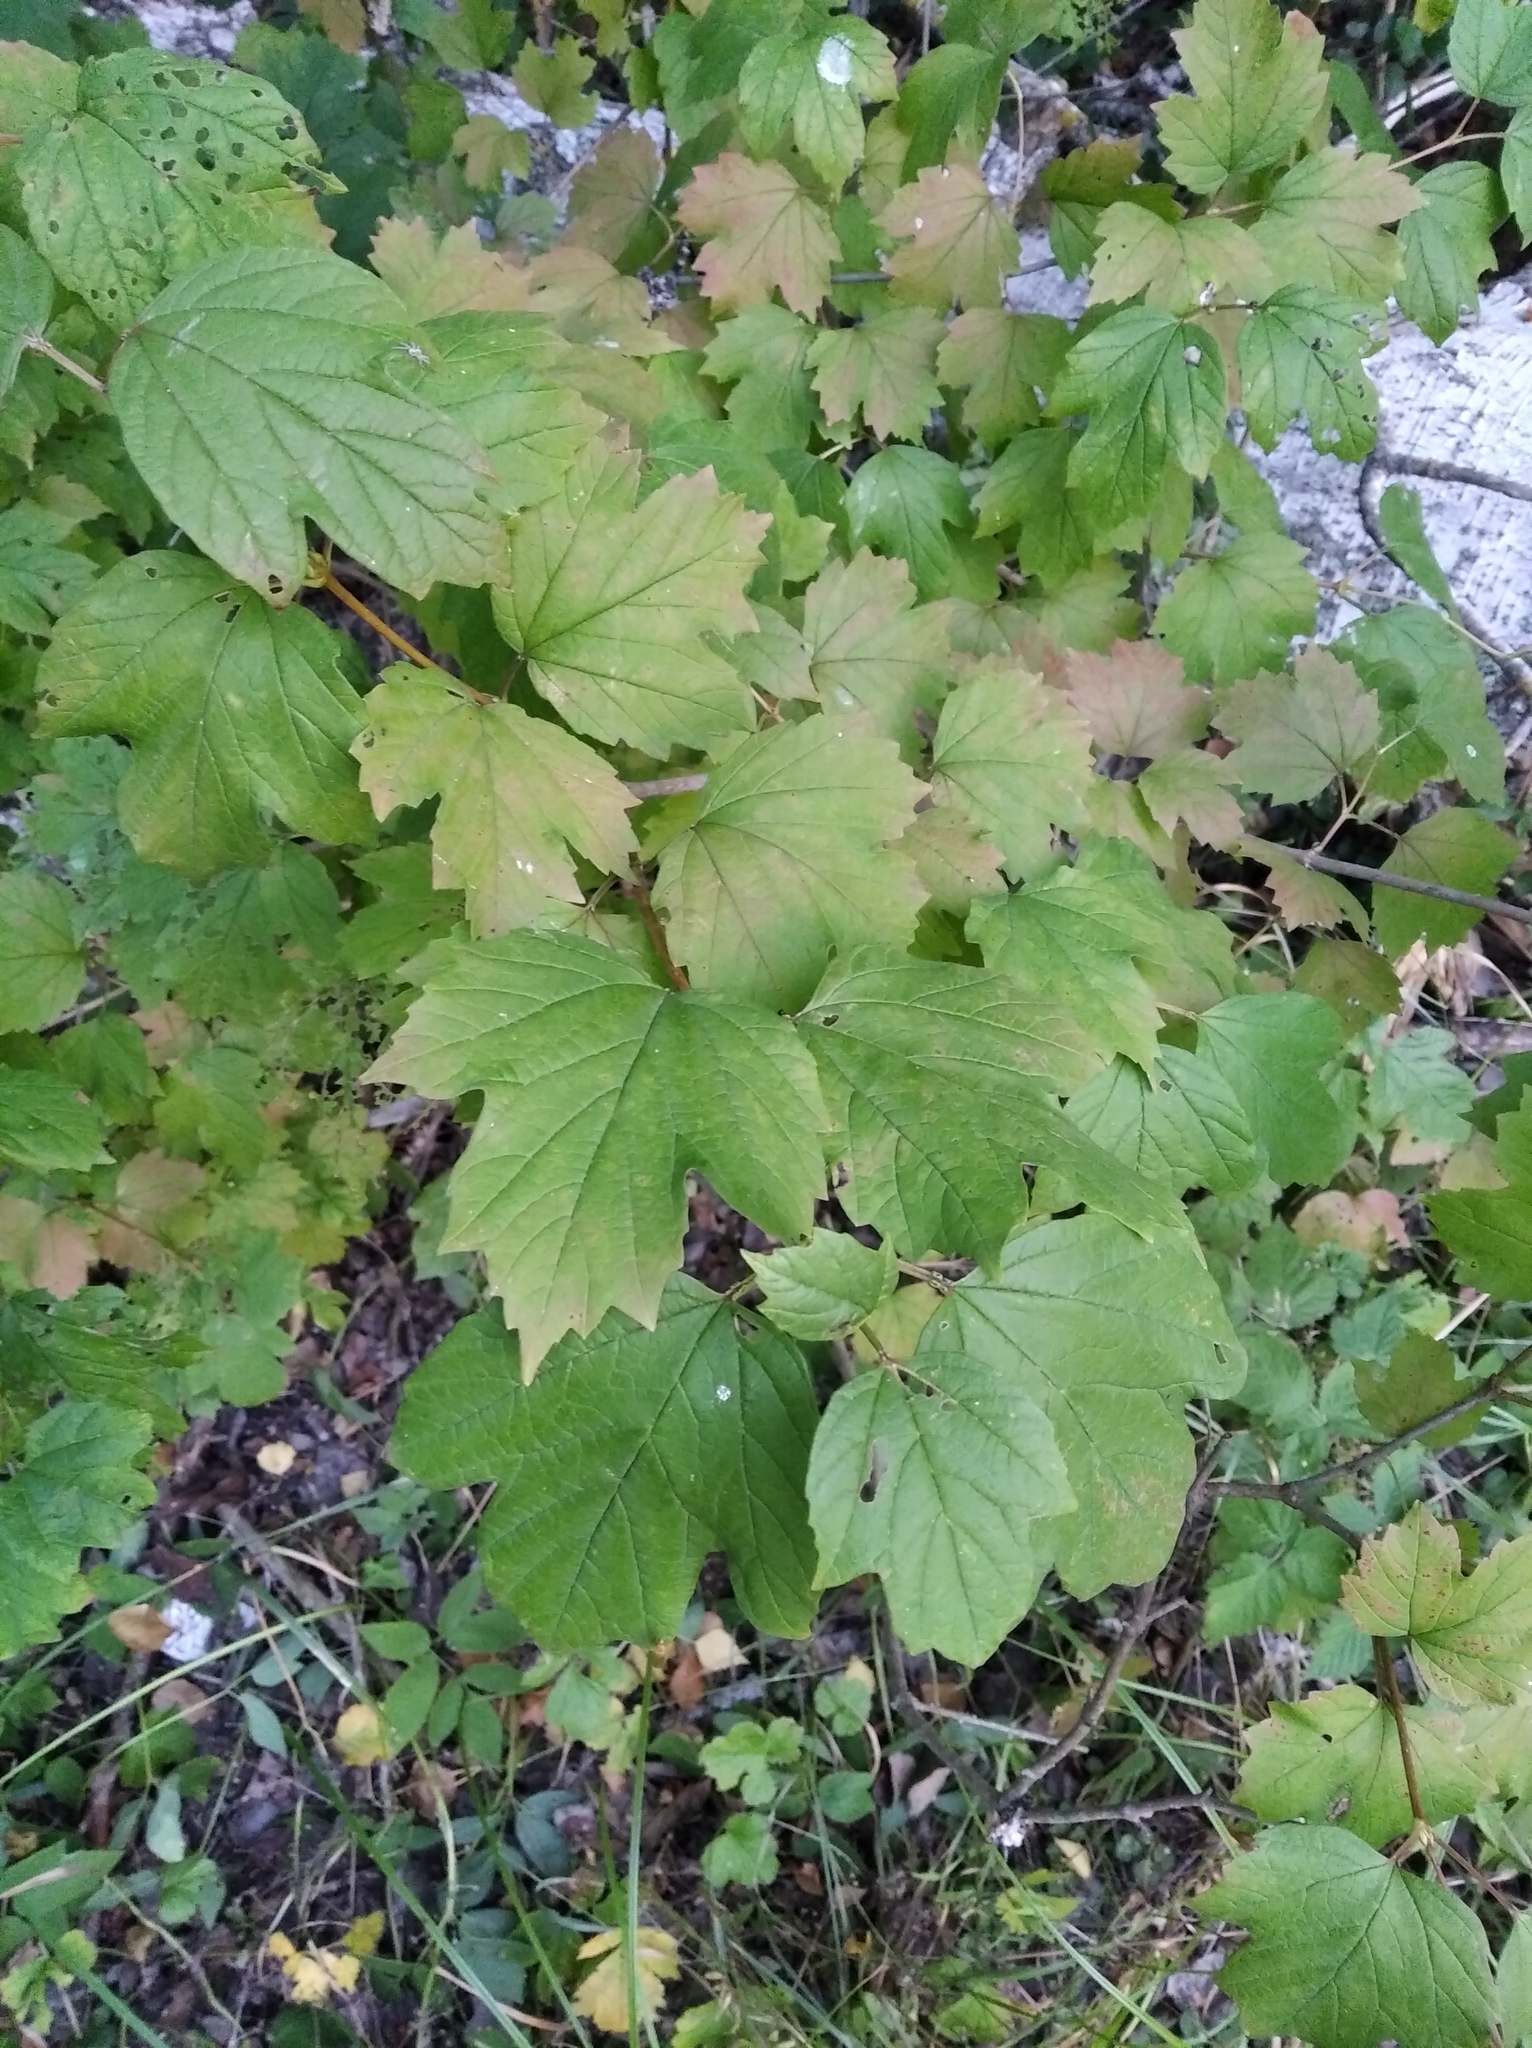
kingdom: Plantae
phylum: Tracheophyta
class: Magnoliopsida
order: Dipsacales
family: Viburnaceae
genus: Viburnum
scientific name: Viburnum opulus
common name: Guelder-rose
